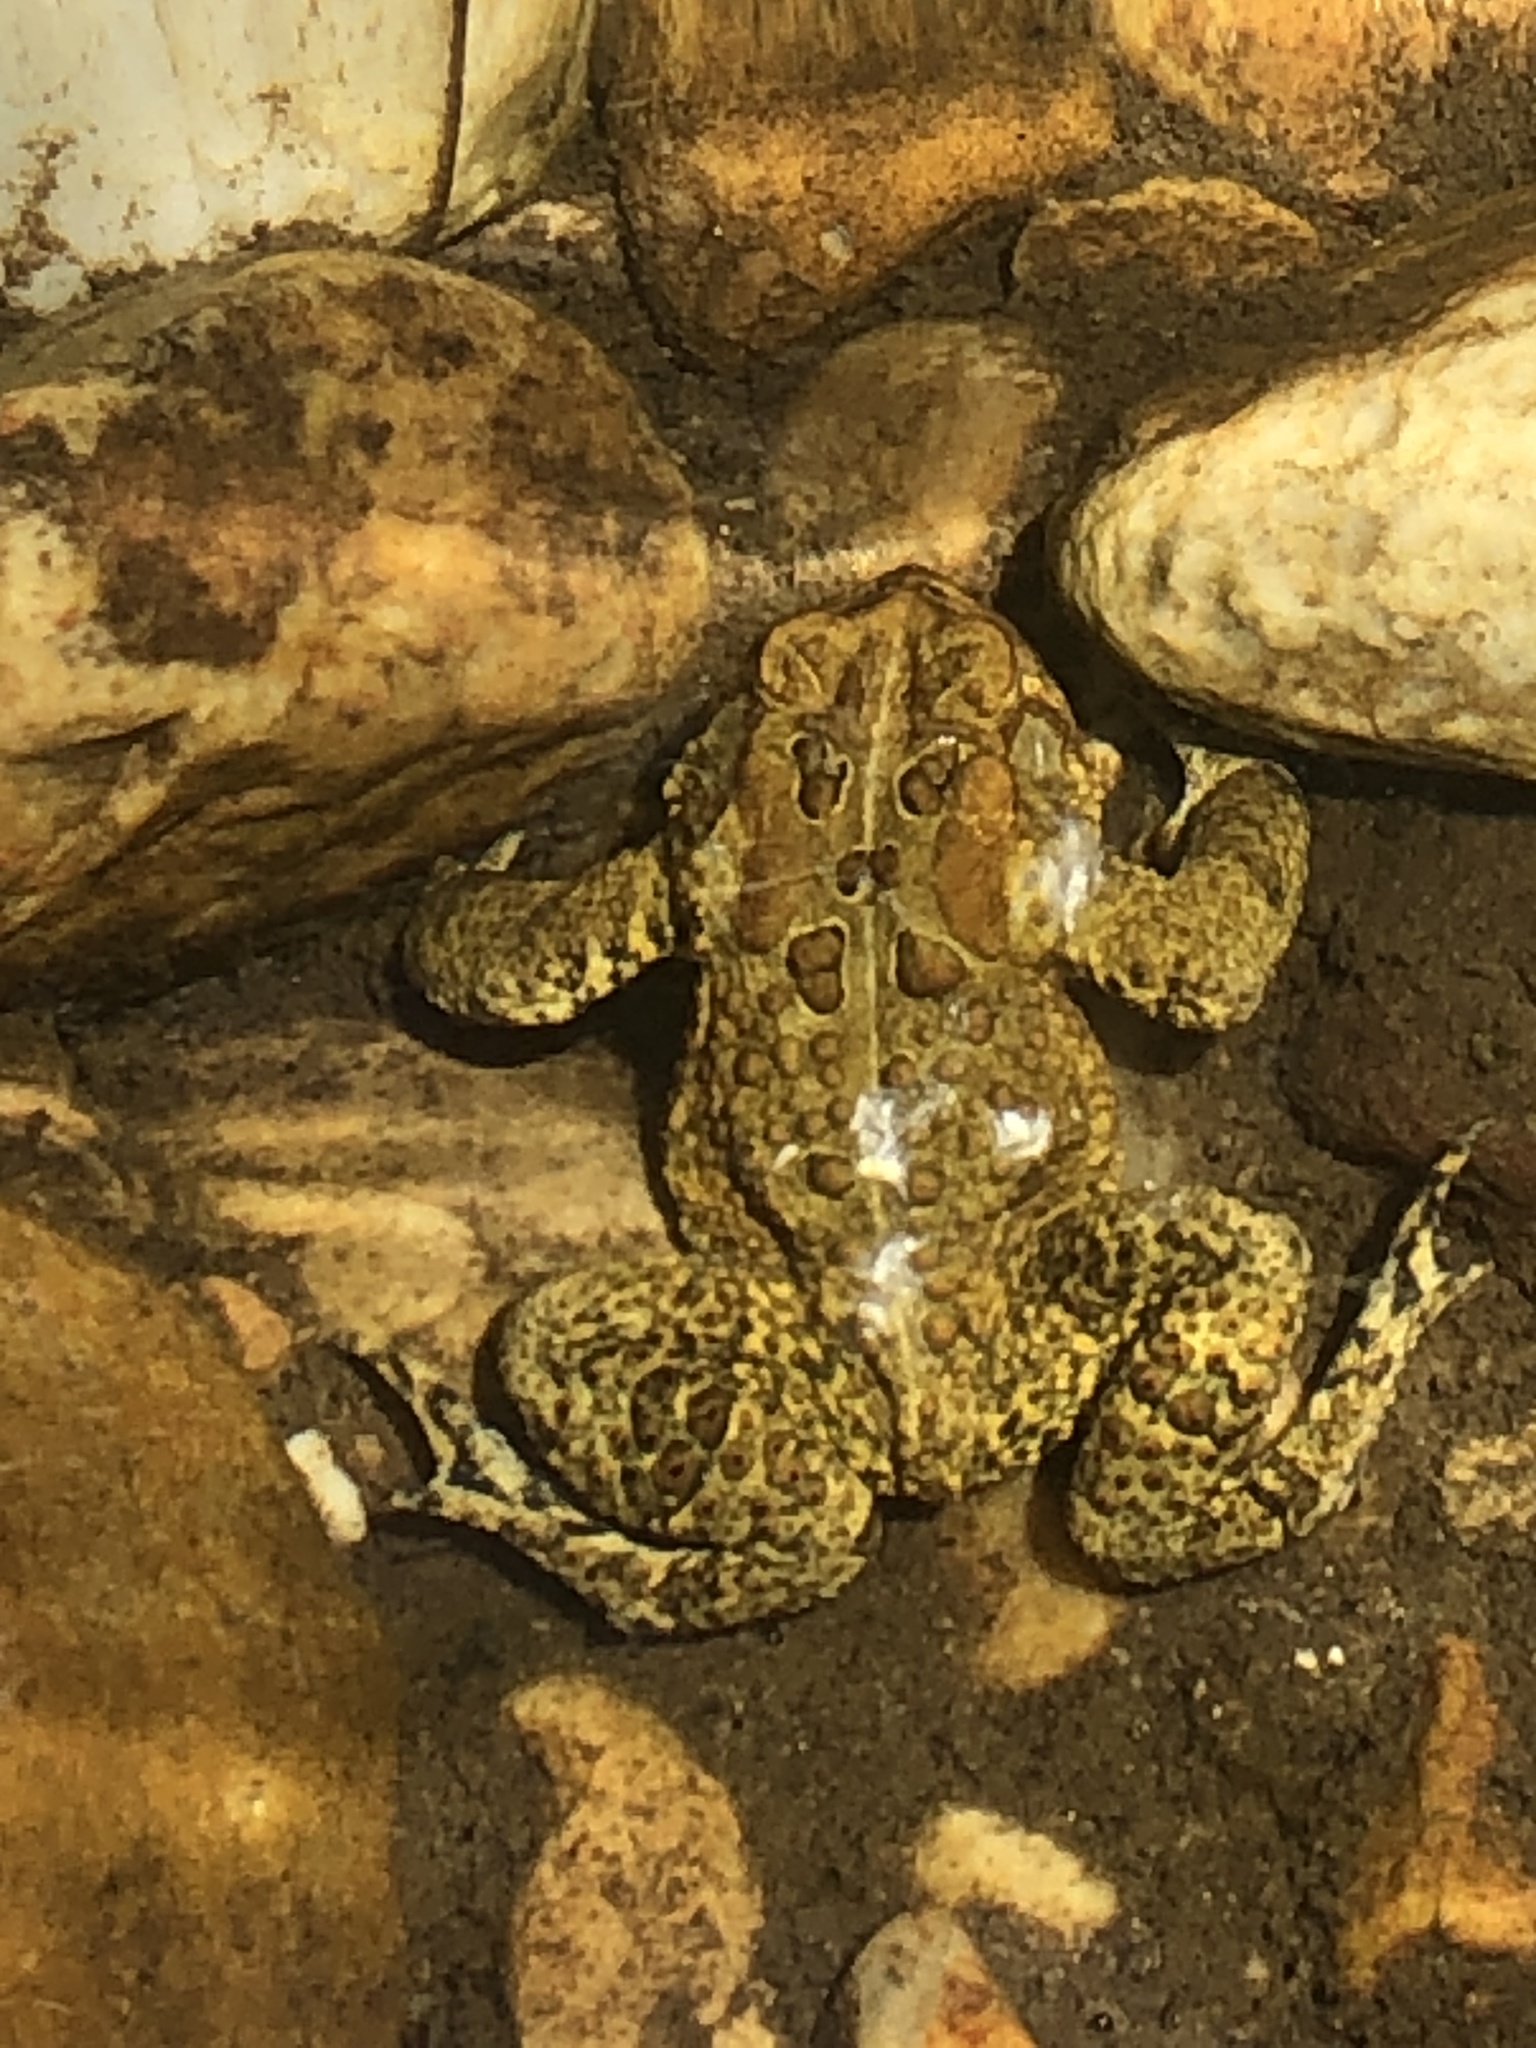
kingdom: Animalia
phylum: Chordata
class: Amphibia
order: Anura
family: Bufonidae
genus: Anaxyrus
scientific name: Anaxyrus americanus
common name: American toad
